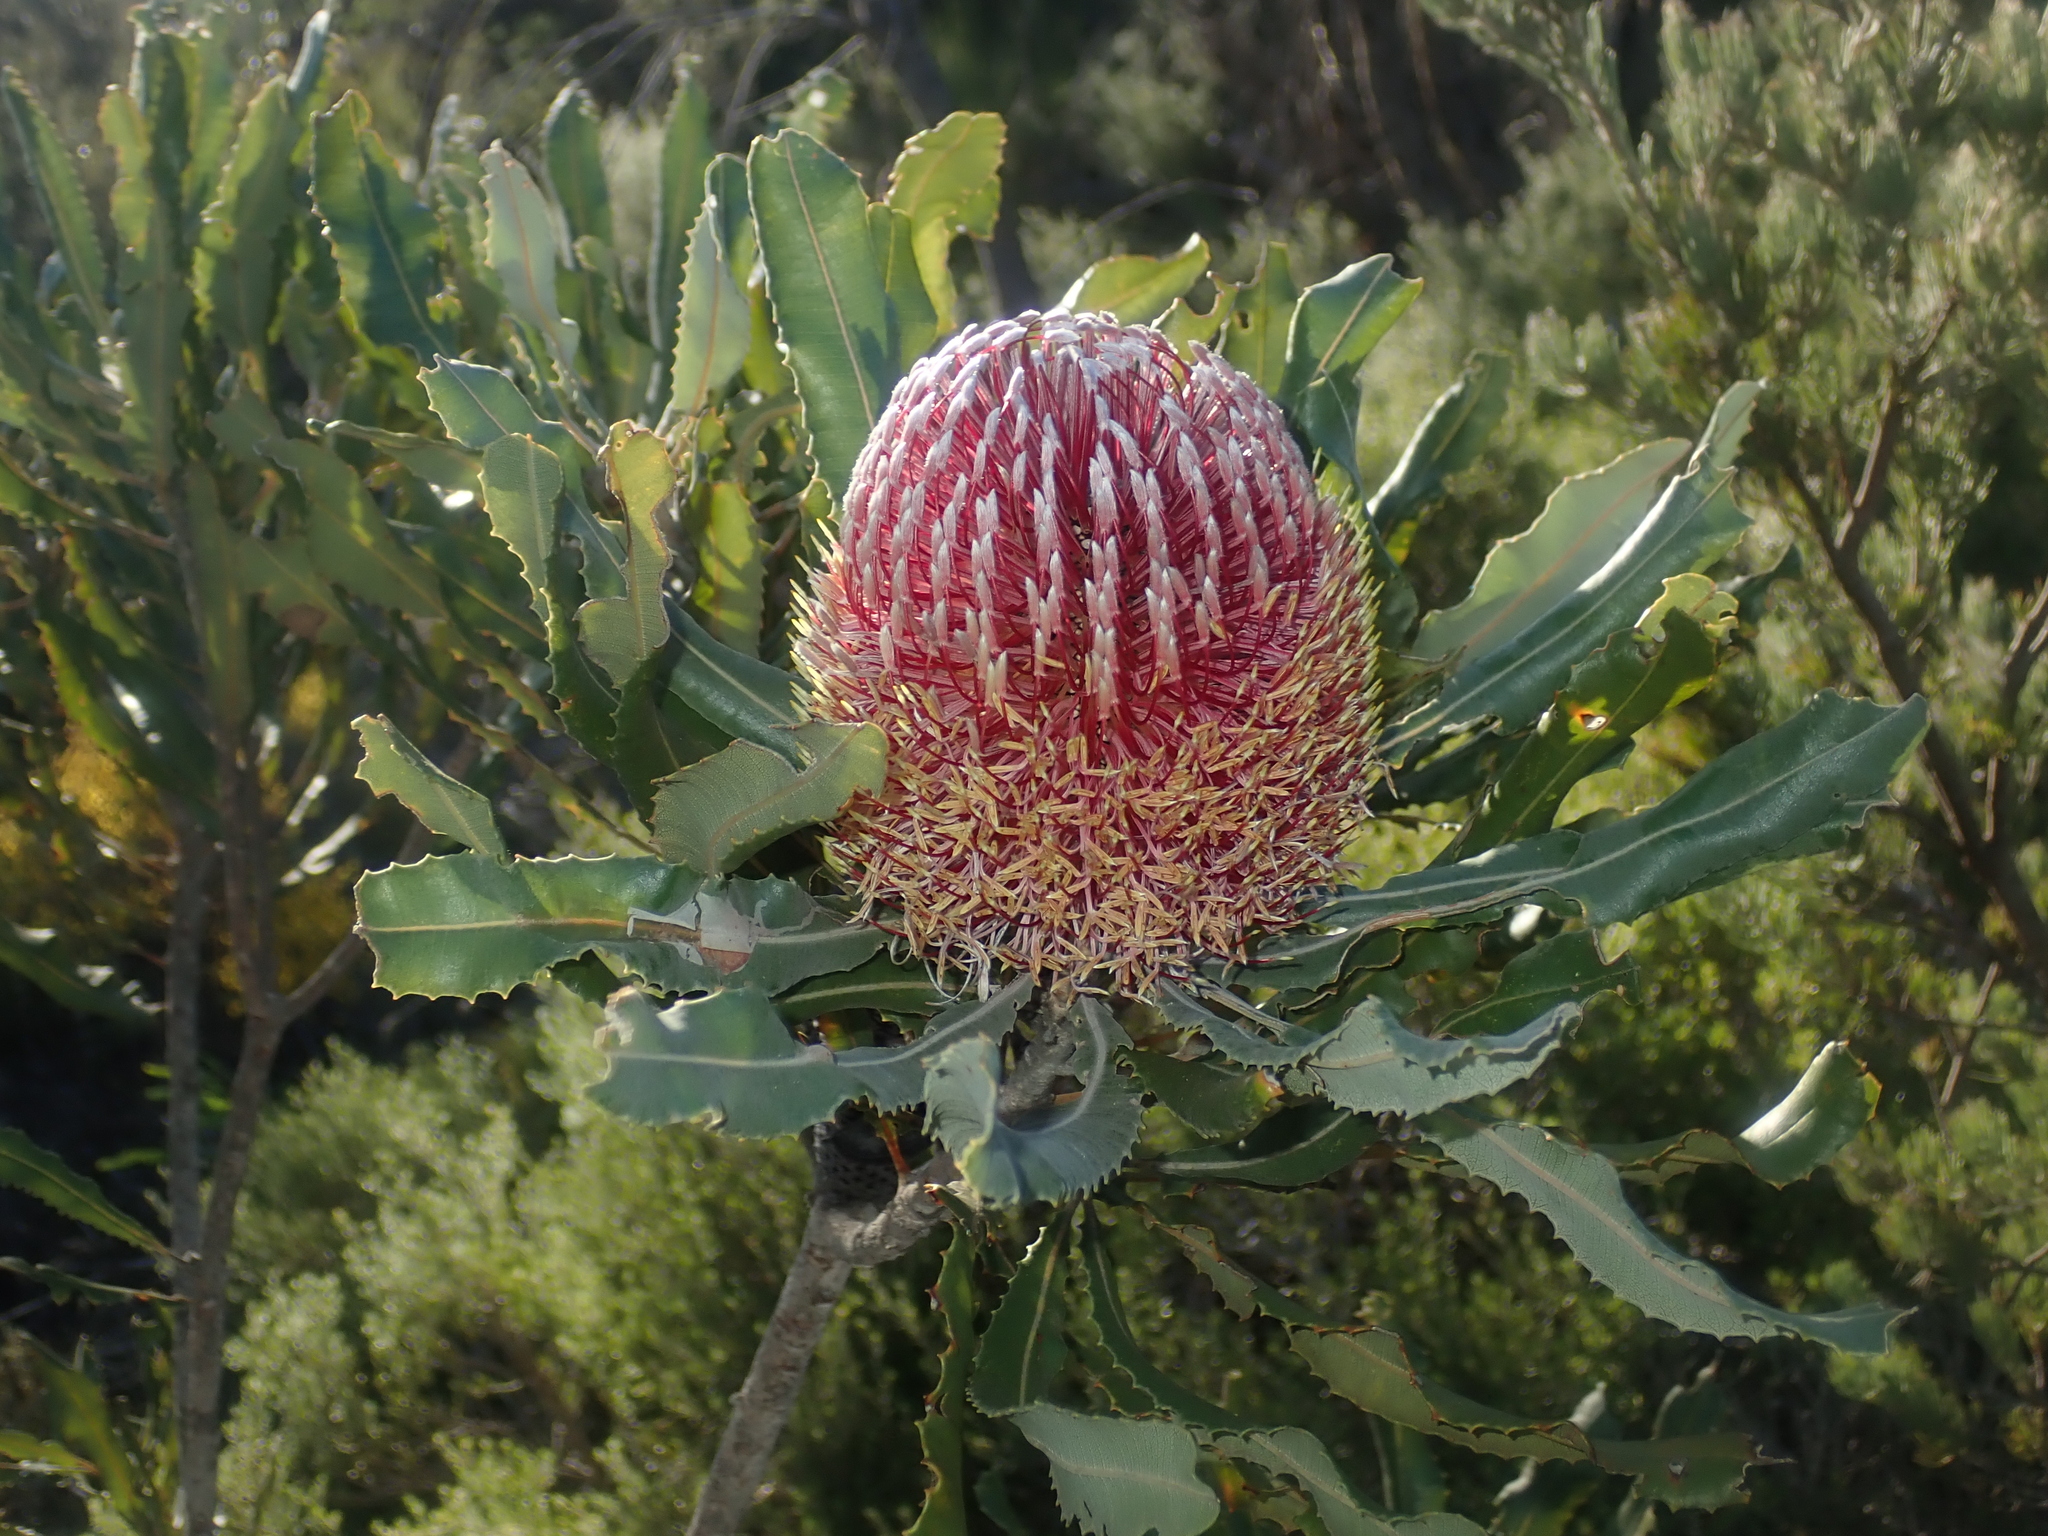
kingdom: Plantae
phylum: Tracheophyta
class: Magnoliopsida
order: Proteales
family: Proteaceae
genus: Banksia
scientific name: Banksia menziesii
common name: Menzie's banksia
